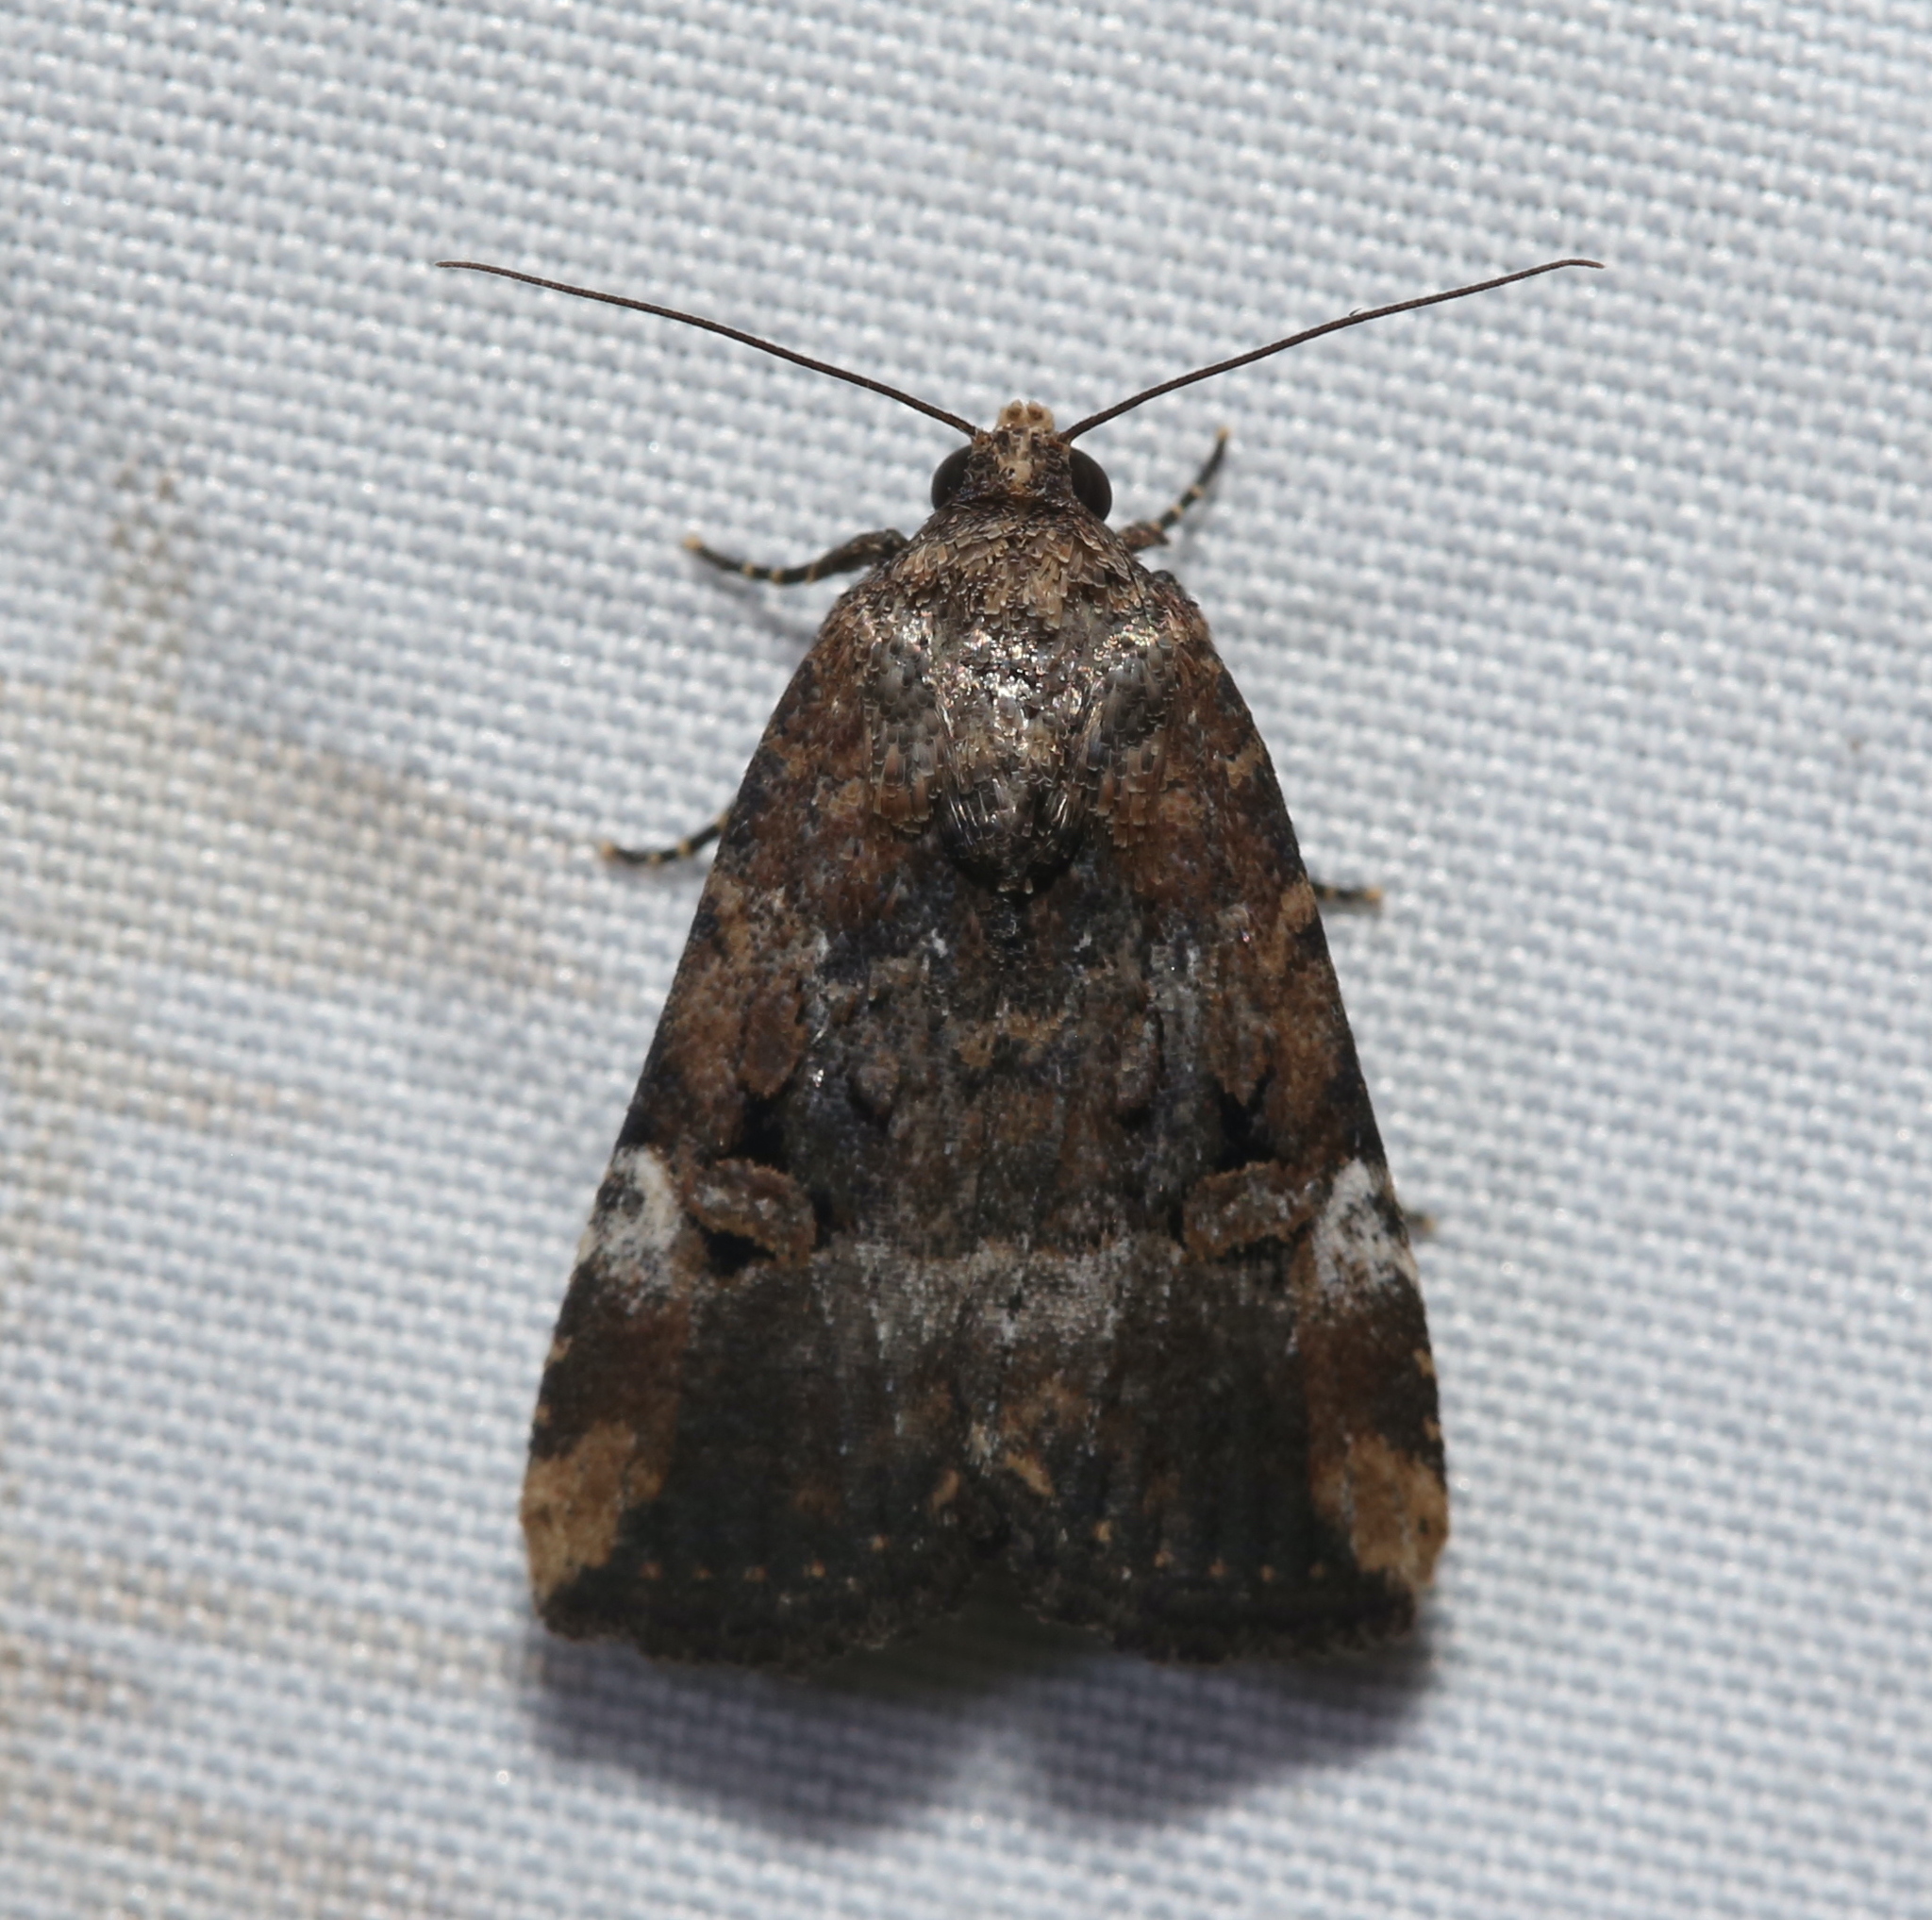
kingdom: Animalia
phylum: Arthropoda
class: Insecta
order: Lepidoptera
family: Noctuidae
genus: Elaphria
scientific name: Elaphria chalcedonia
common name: Chalcedony midget
